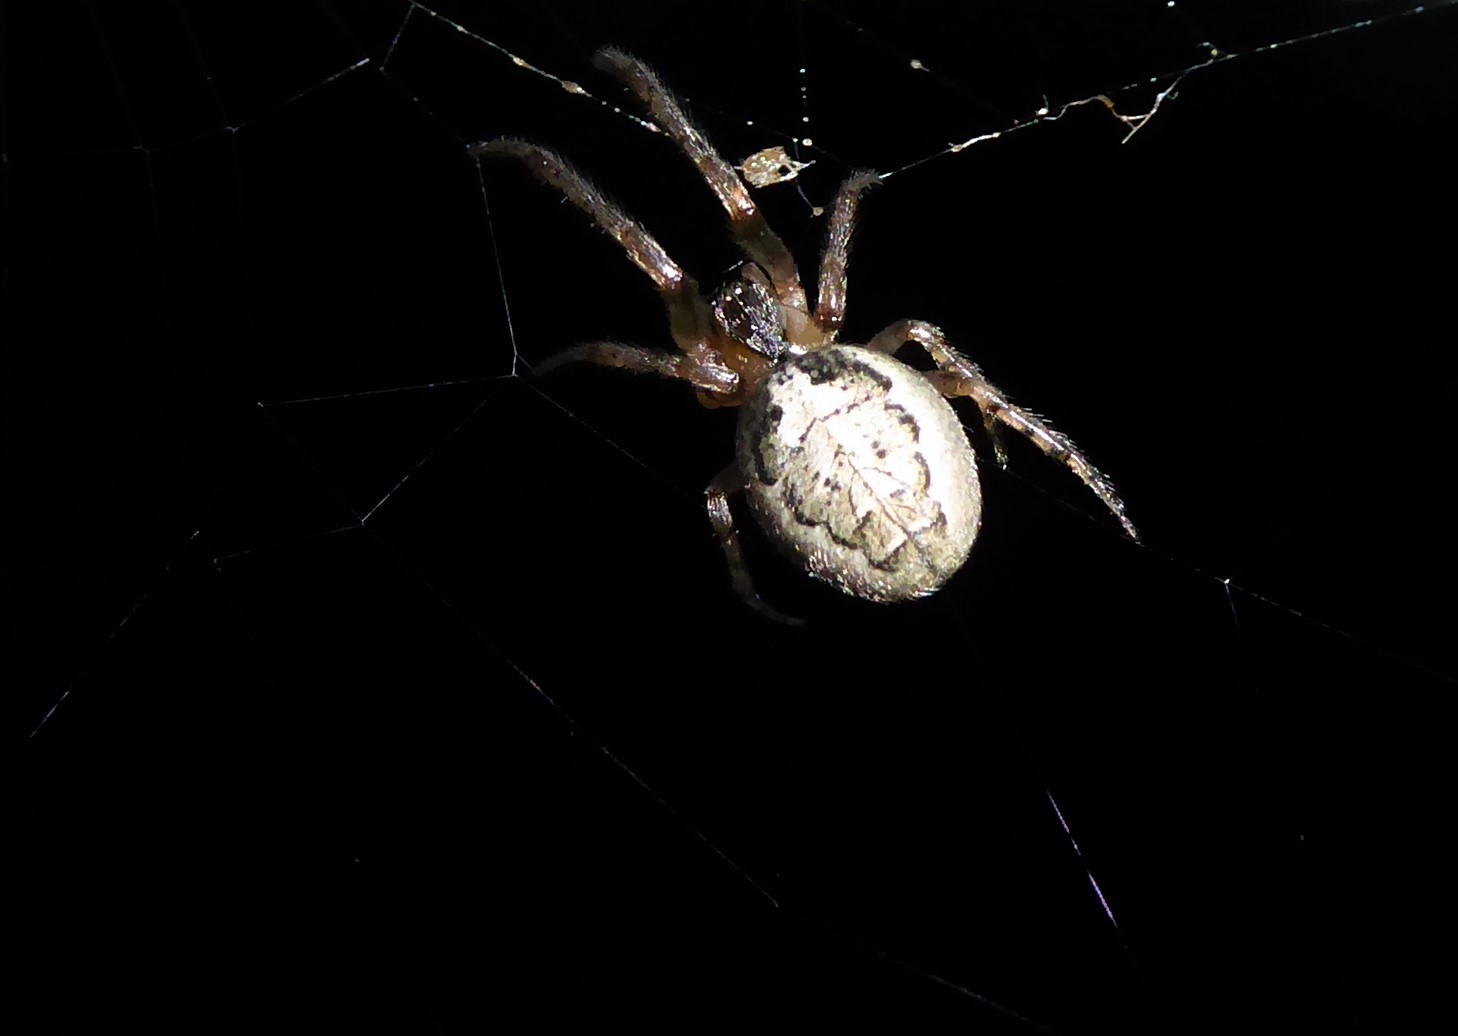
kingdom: Animalia
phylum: Arthropoda
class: Arachnida
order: Araneae
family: Araneidae
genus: Zygiella
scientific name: Zygiella x-notata
